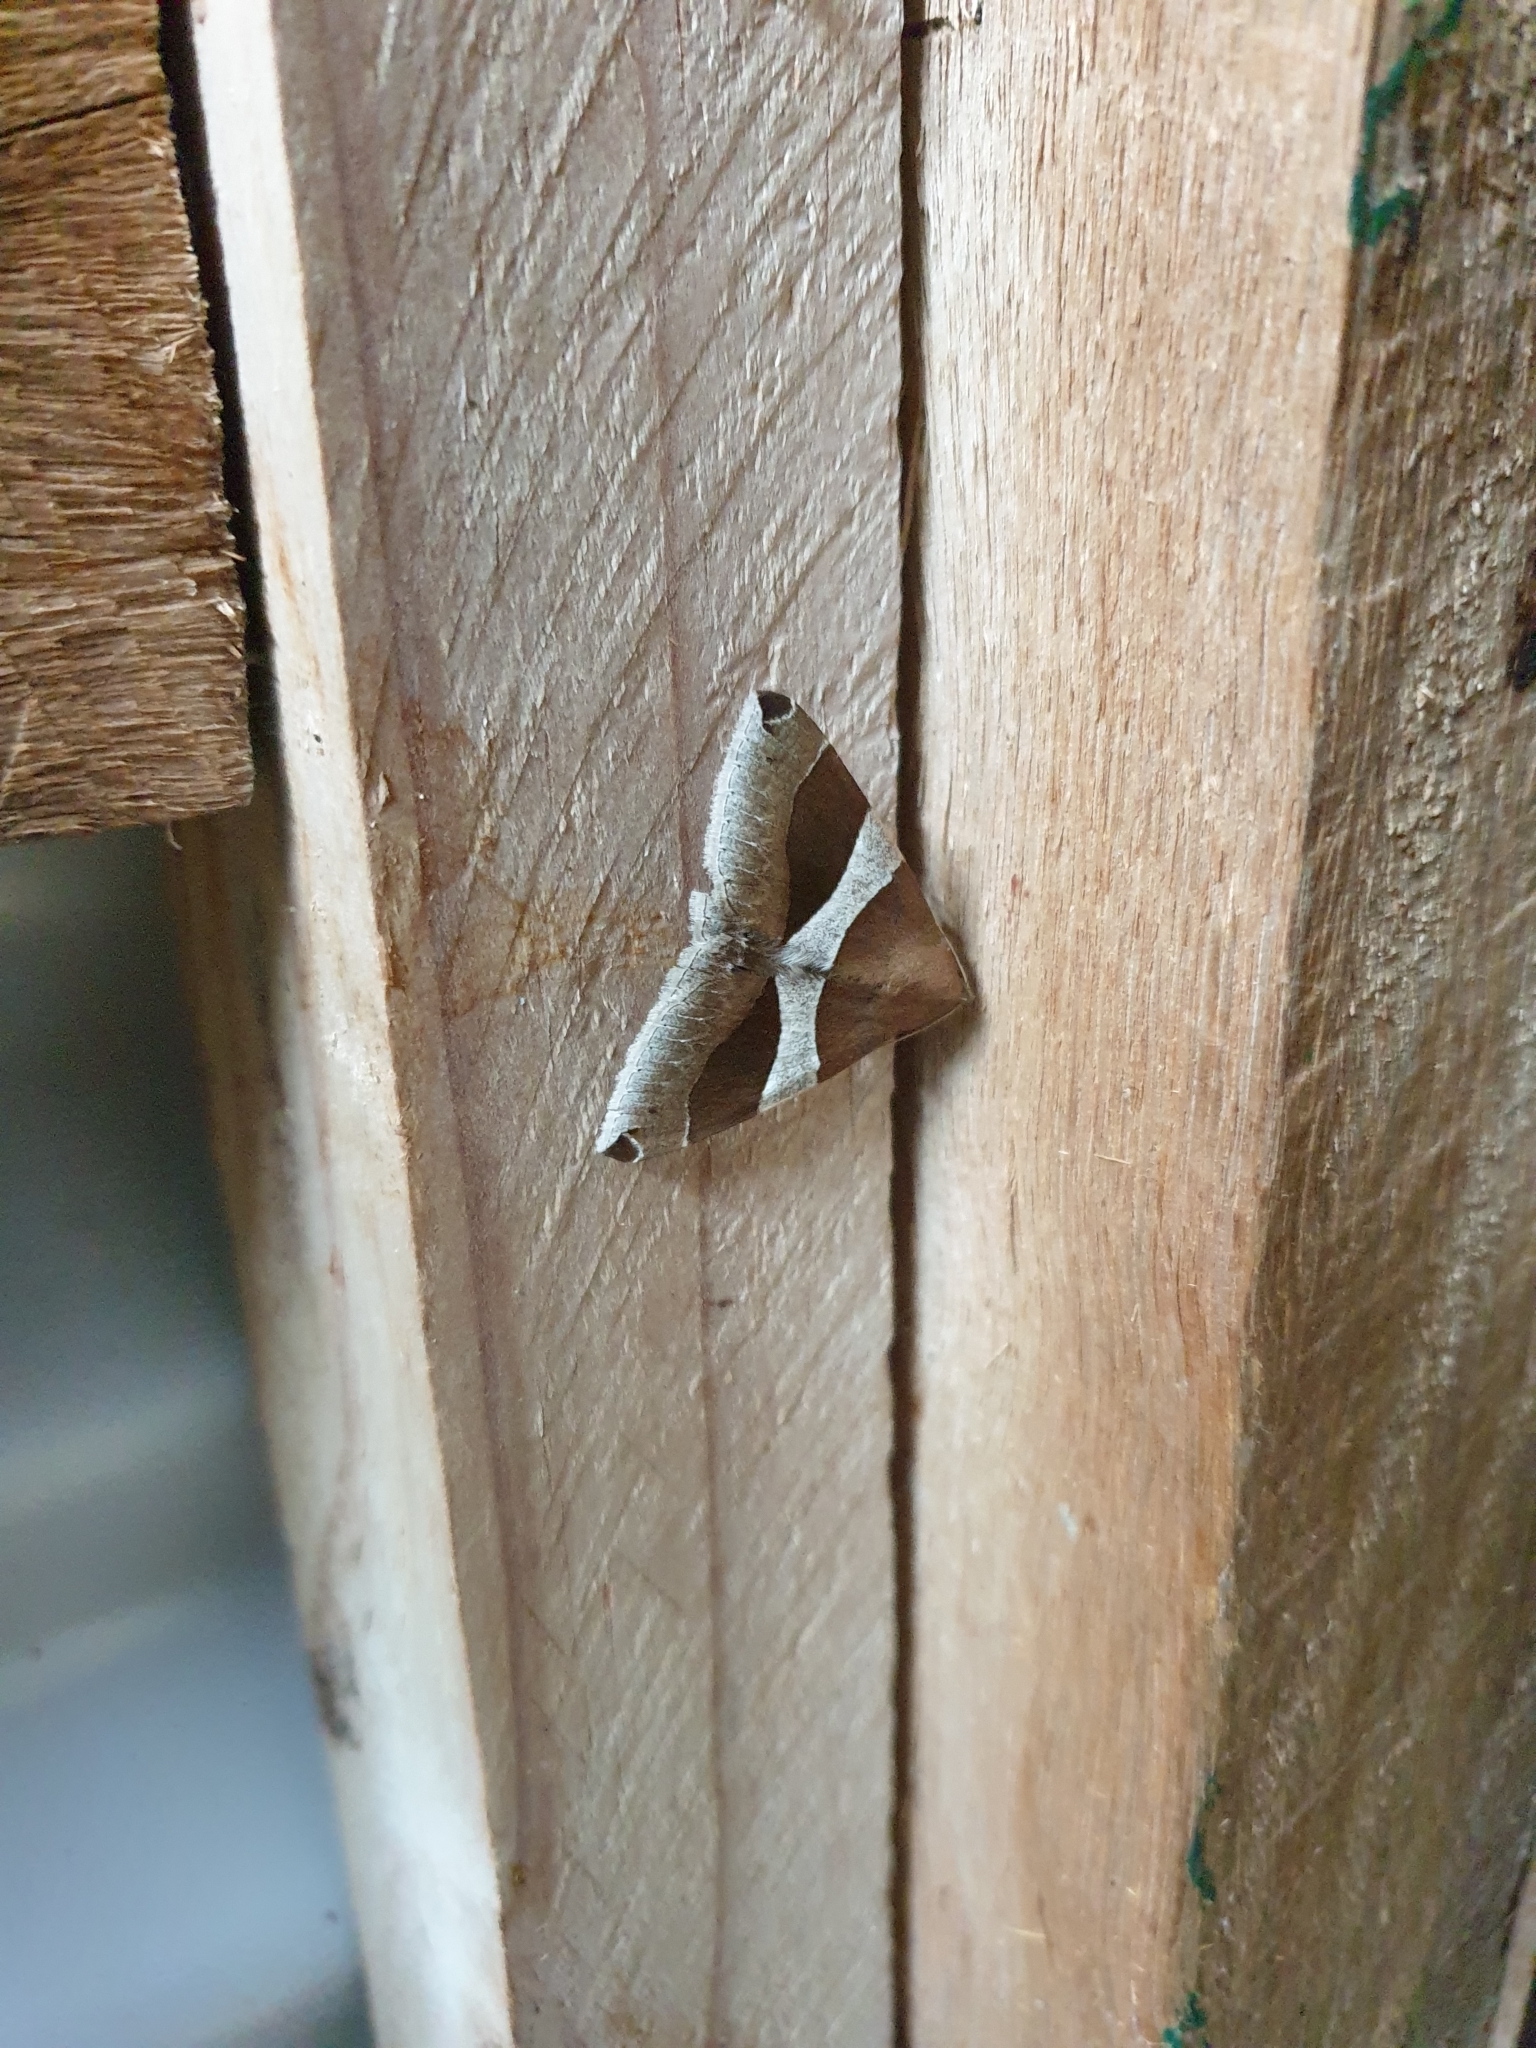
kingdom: Animalia
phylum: Arthropoda
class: Insecta
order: Lepidoptera
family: Erebidae
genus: Dysgonia
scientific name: Dysgonia constricta
